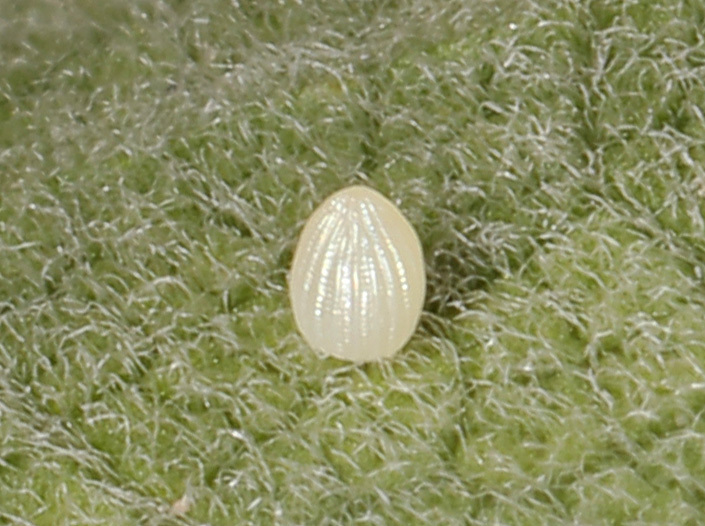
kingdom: Animalia
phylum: Arthropoda
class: Insecta
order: Lepidoptera
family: Nymphalidae
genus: Danaus
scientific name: Danaus plexippus
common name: Monarch
